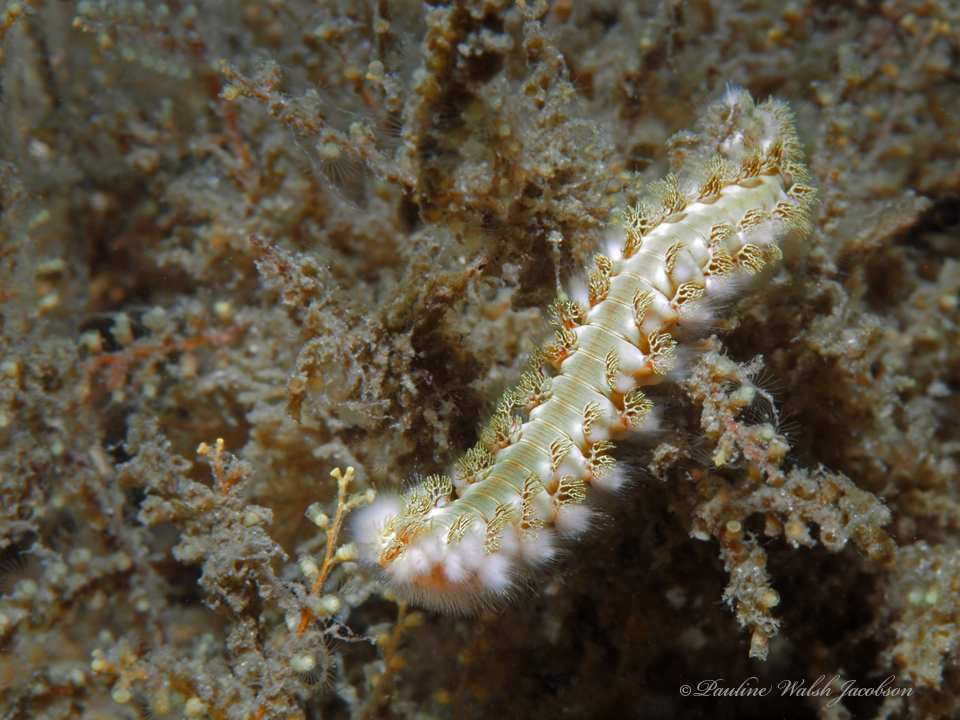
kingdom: Animalia
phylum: Annelida
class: Polychaeta
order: Amphinomida
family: Amphinomidae
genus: Hermodice
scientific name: Hermodice carunculata
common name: Bearded fireworm
